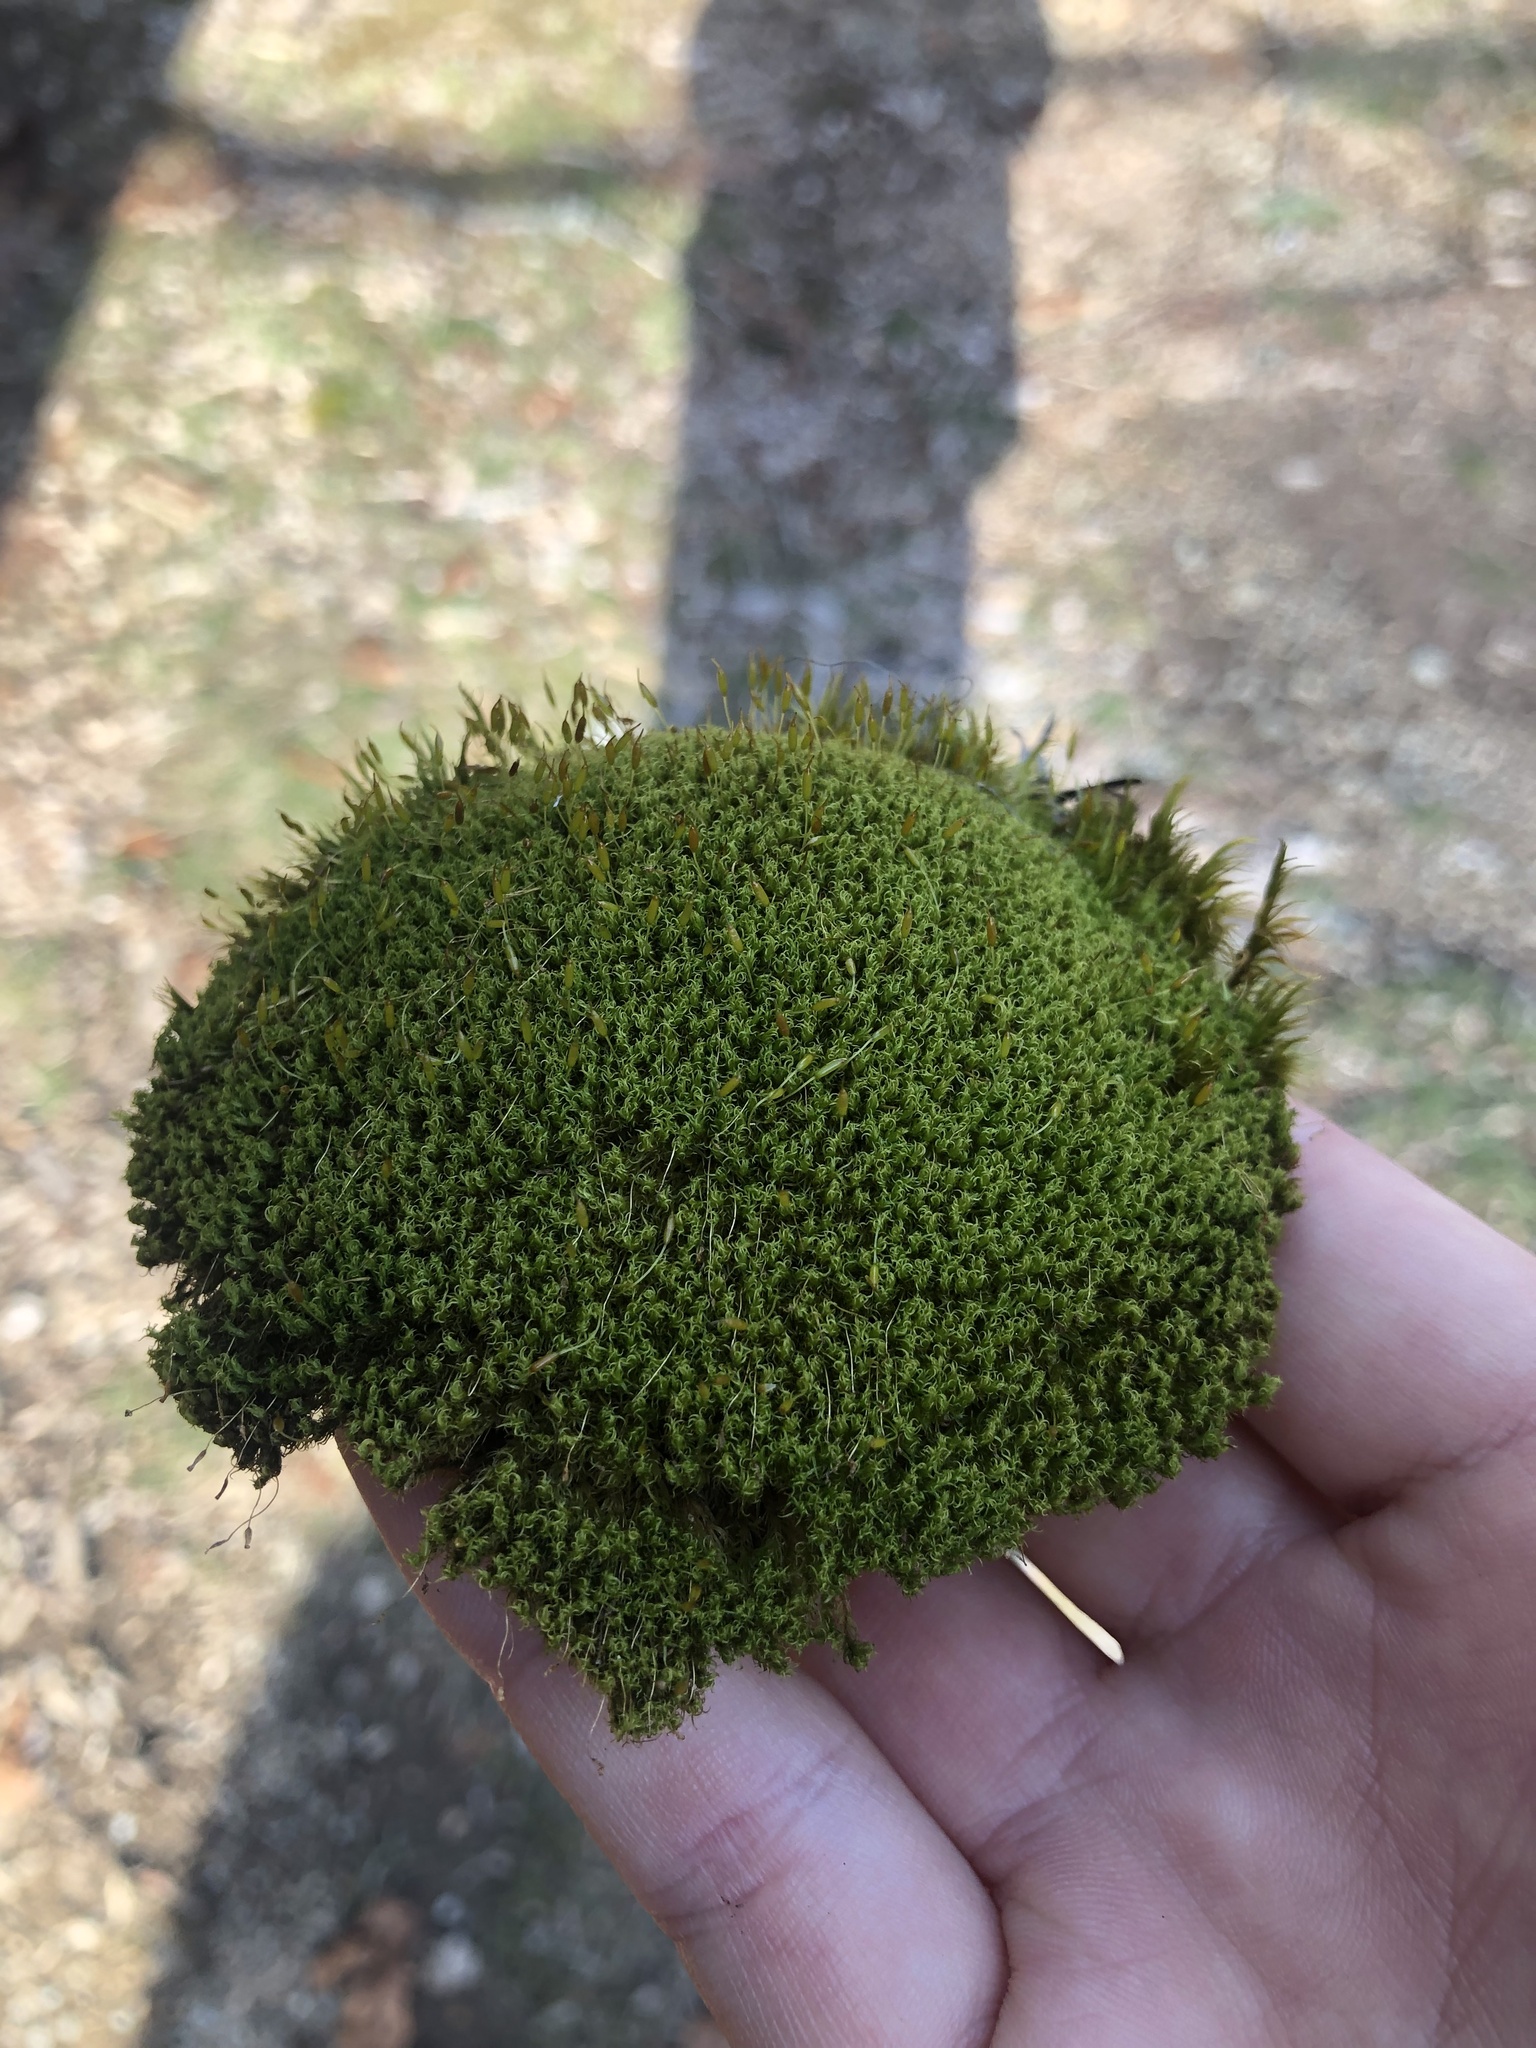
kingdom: Plantae
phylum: Bryophyta
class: Bryopsida
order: Dicranales
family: Rhabdoweisiaceae
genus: Dicranoweisia
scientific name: Dicranoweisia cirrata
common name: Common pincushion
